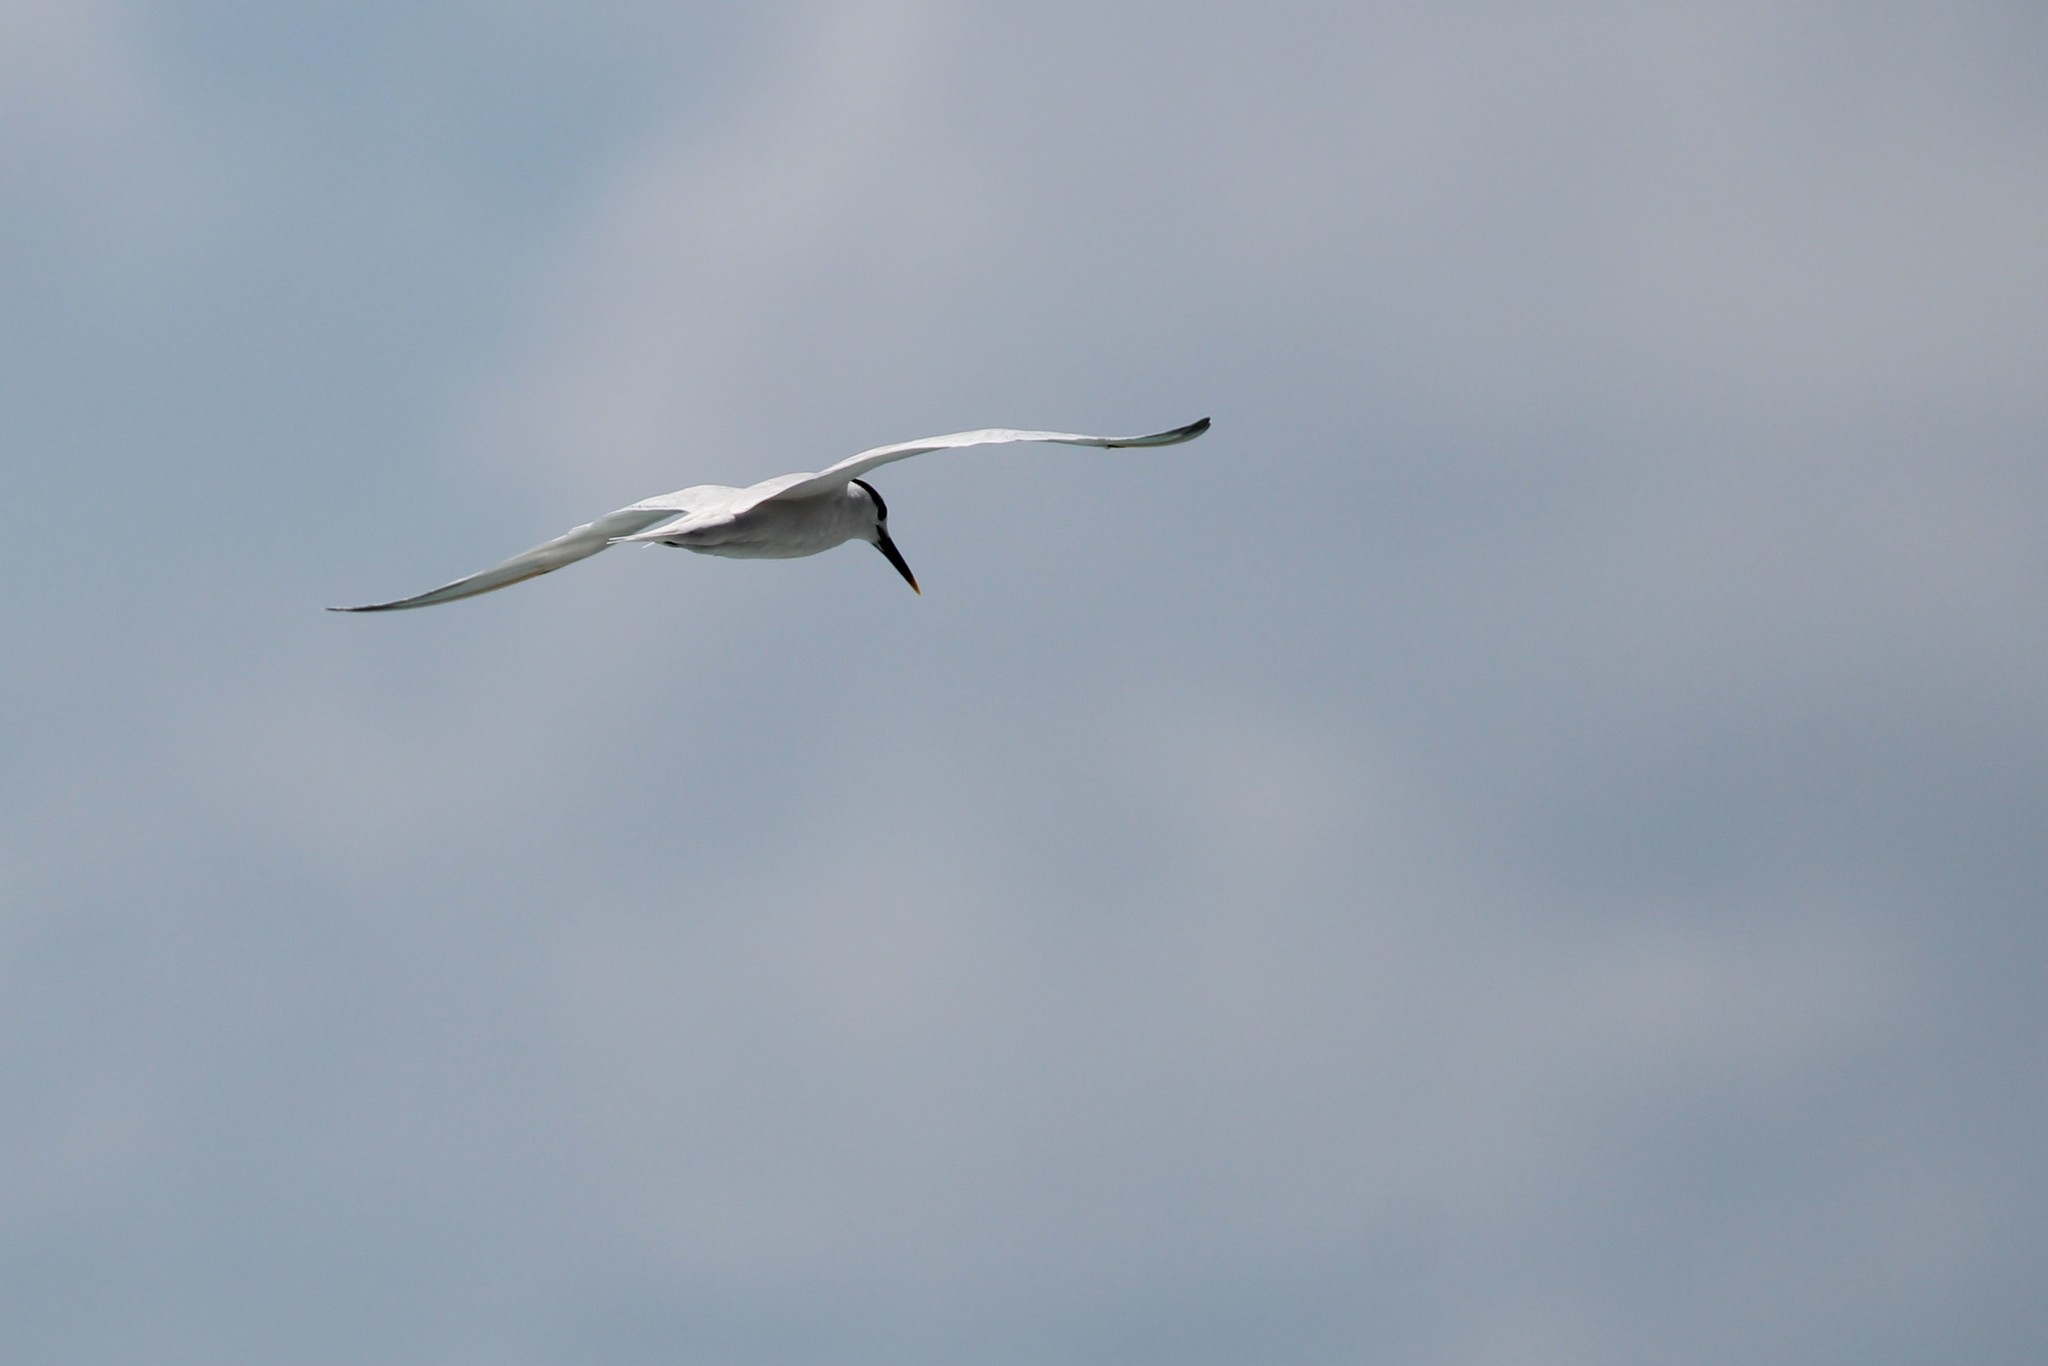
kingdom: Animalia
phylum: Chordata
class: Aves
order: Charadriiformes
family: Laridae
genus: Thalasseus
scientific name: Thalasseus sandvicensis
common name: Sandwich tern
